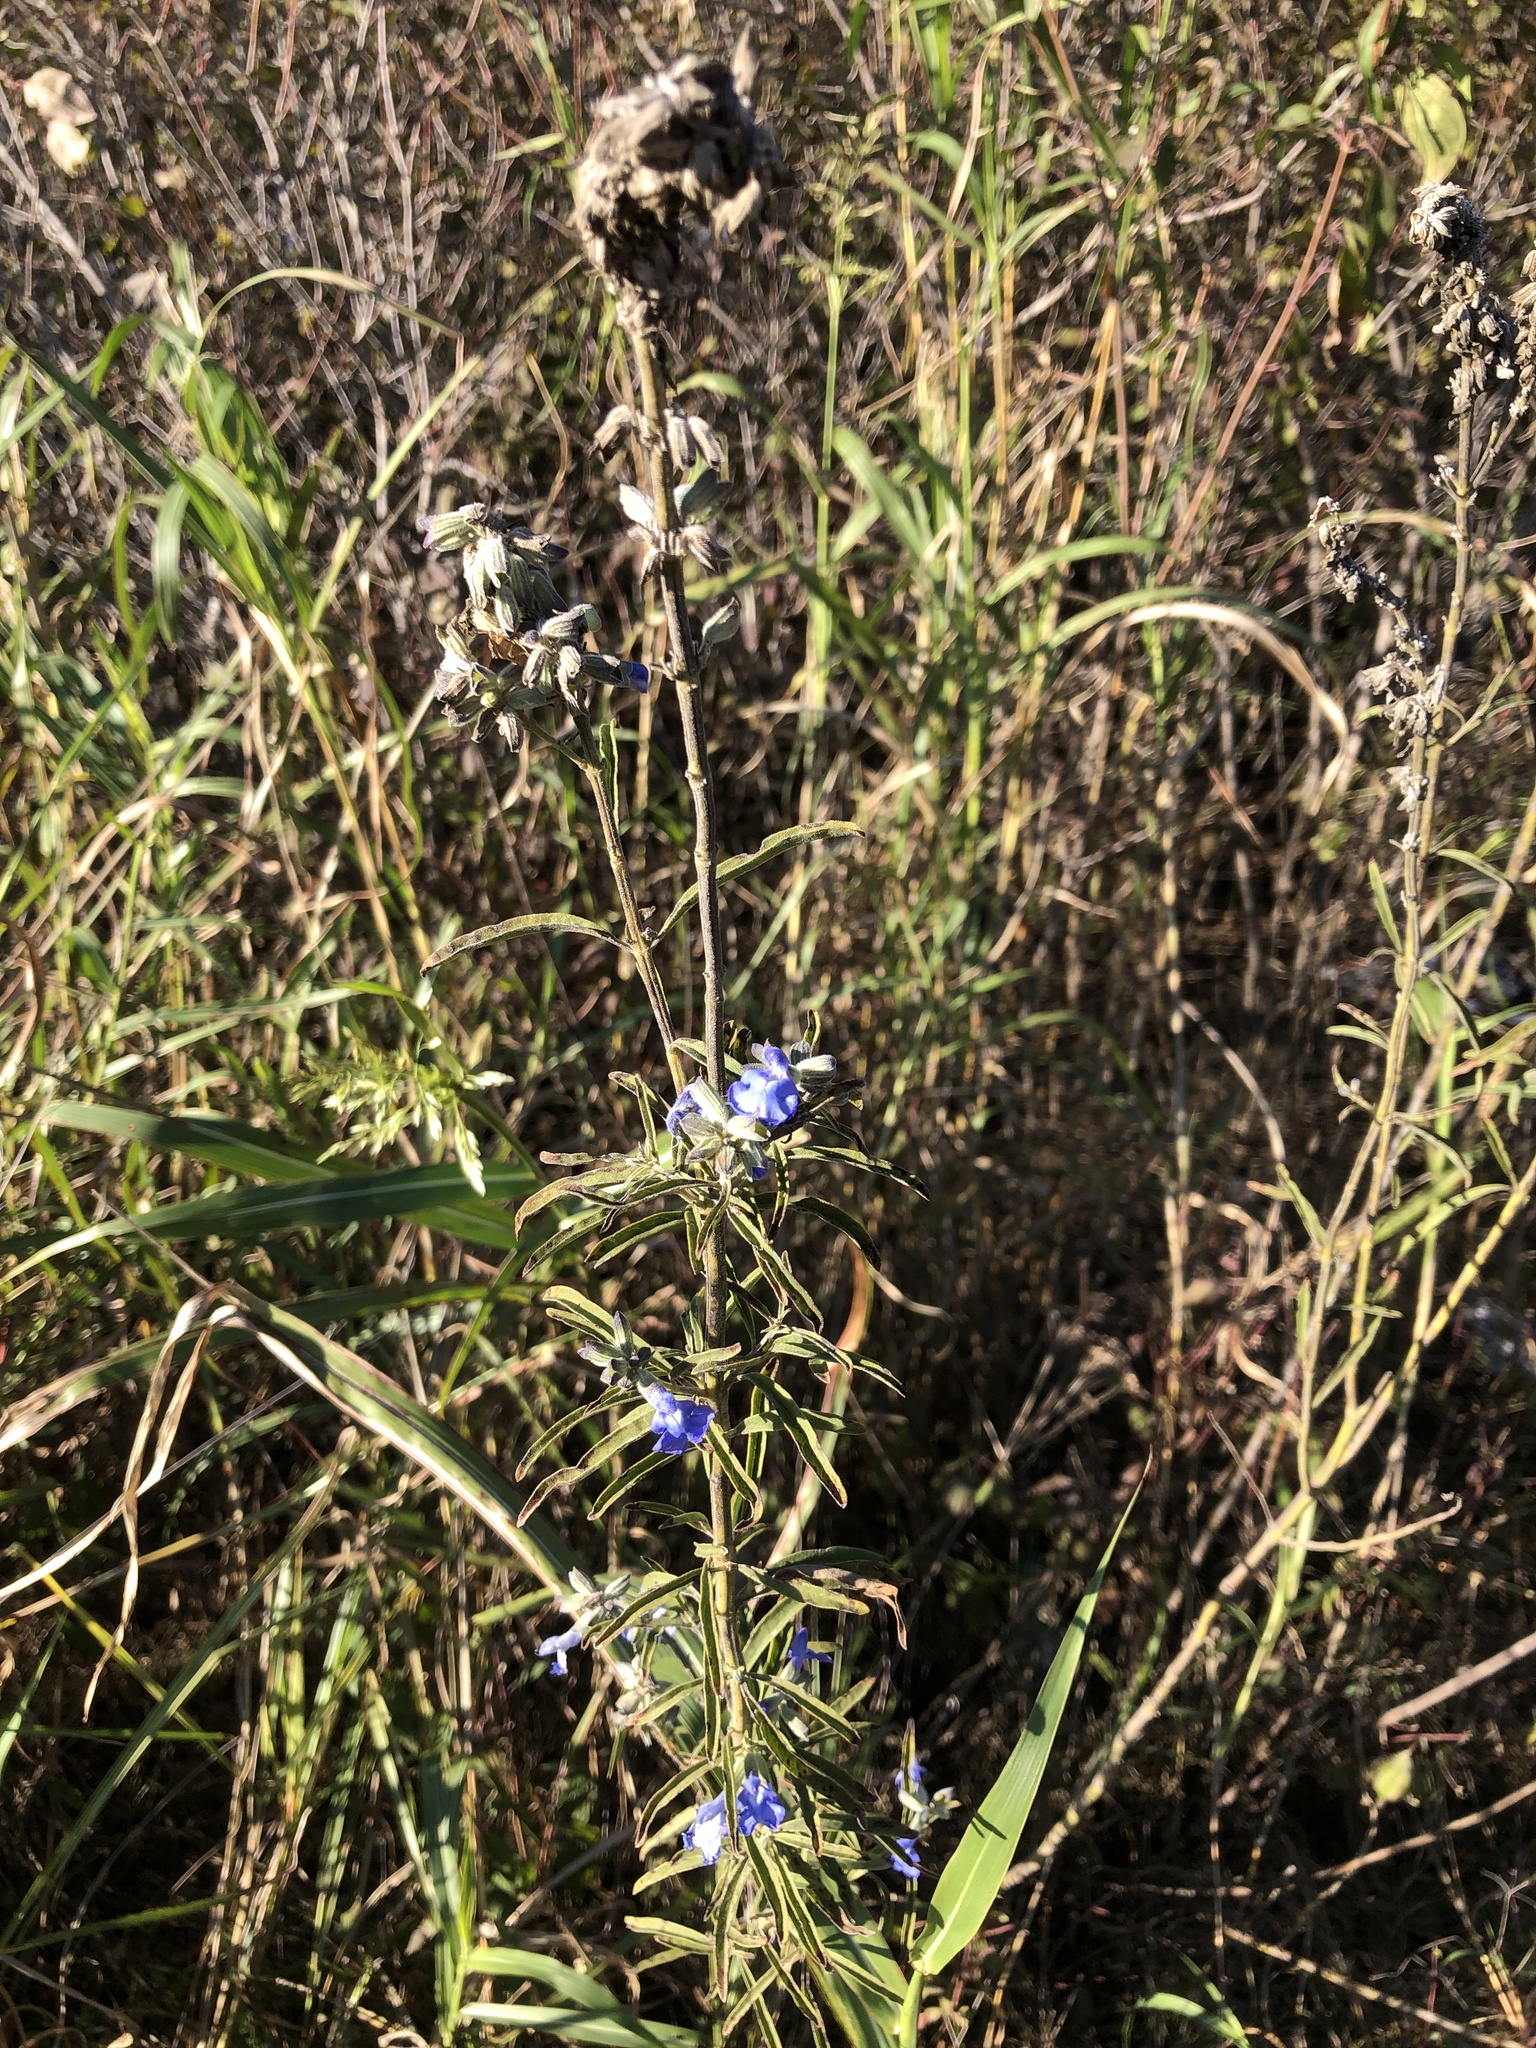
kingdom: Plantae
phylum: Tracheophyta
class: Magnoliopsida
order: Lamiales
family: Lamiaceae
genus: Salvia
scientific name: Salvia azurea
